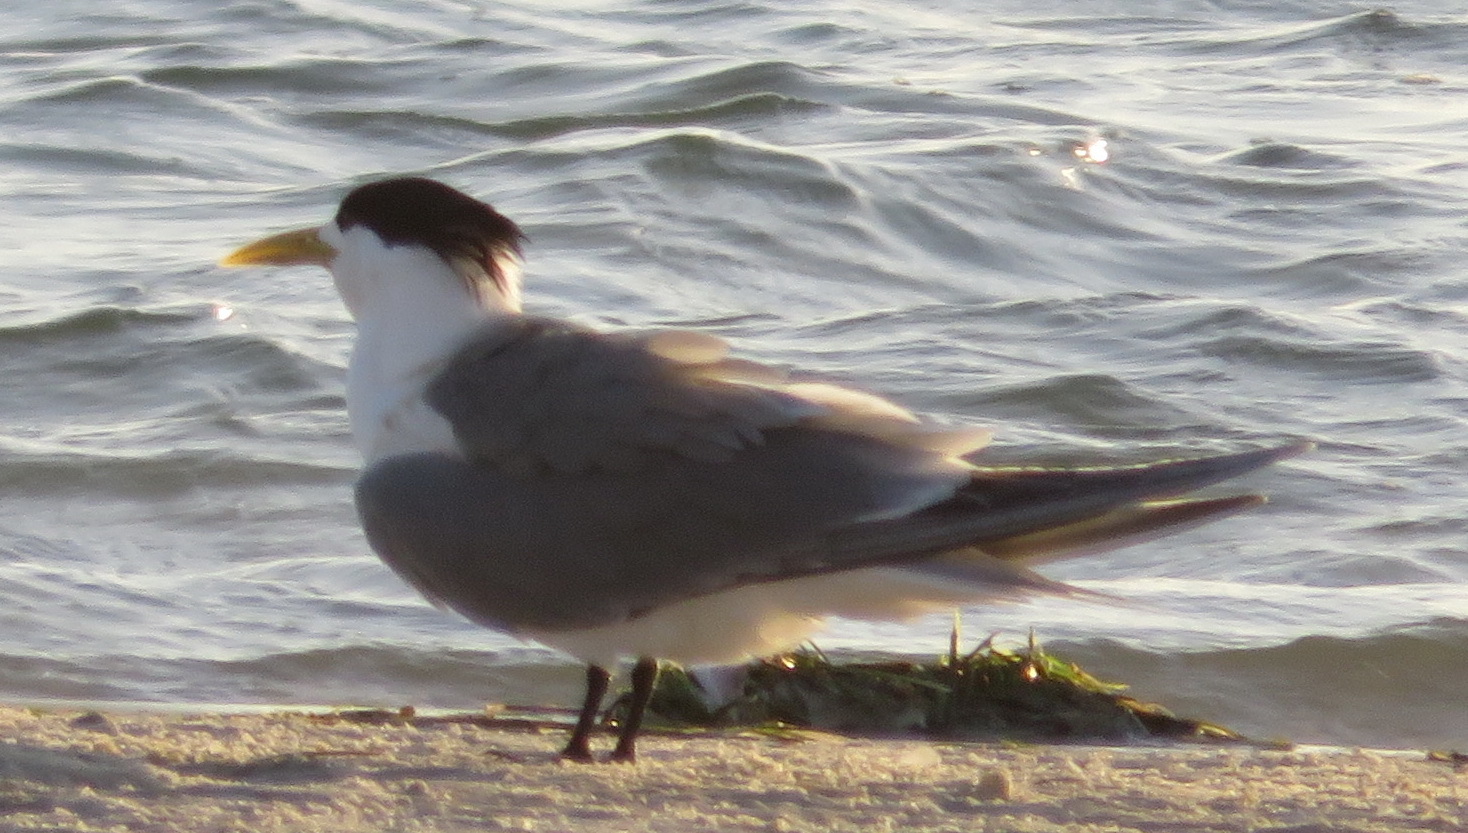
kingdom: Animalia
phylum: Chordata
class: Aves
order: Charadriiformes
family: Laridae
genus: Thalasseus
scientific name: Thalasseus bergii
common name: Greater crested tern
